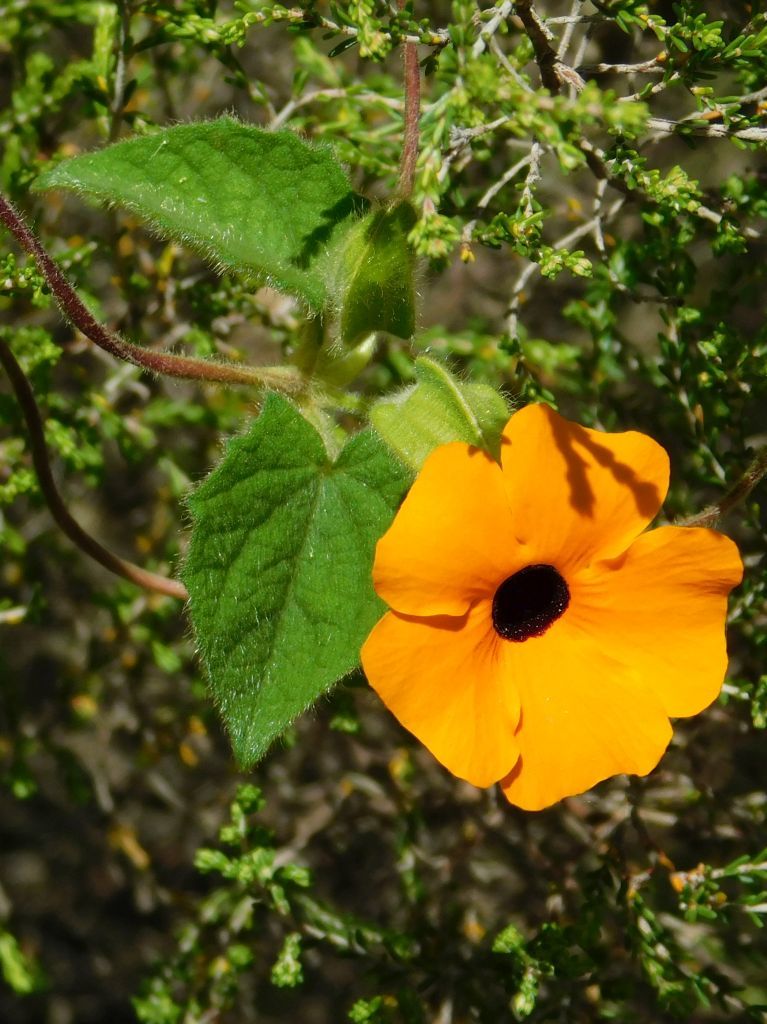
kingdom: Plantae
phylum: Tracheophyta
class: Magnoliopsida
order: Lamiales
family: Acanthaceae
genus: Thunbergia
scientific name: Thunbergia alata
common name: Blackeyed susan vine
